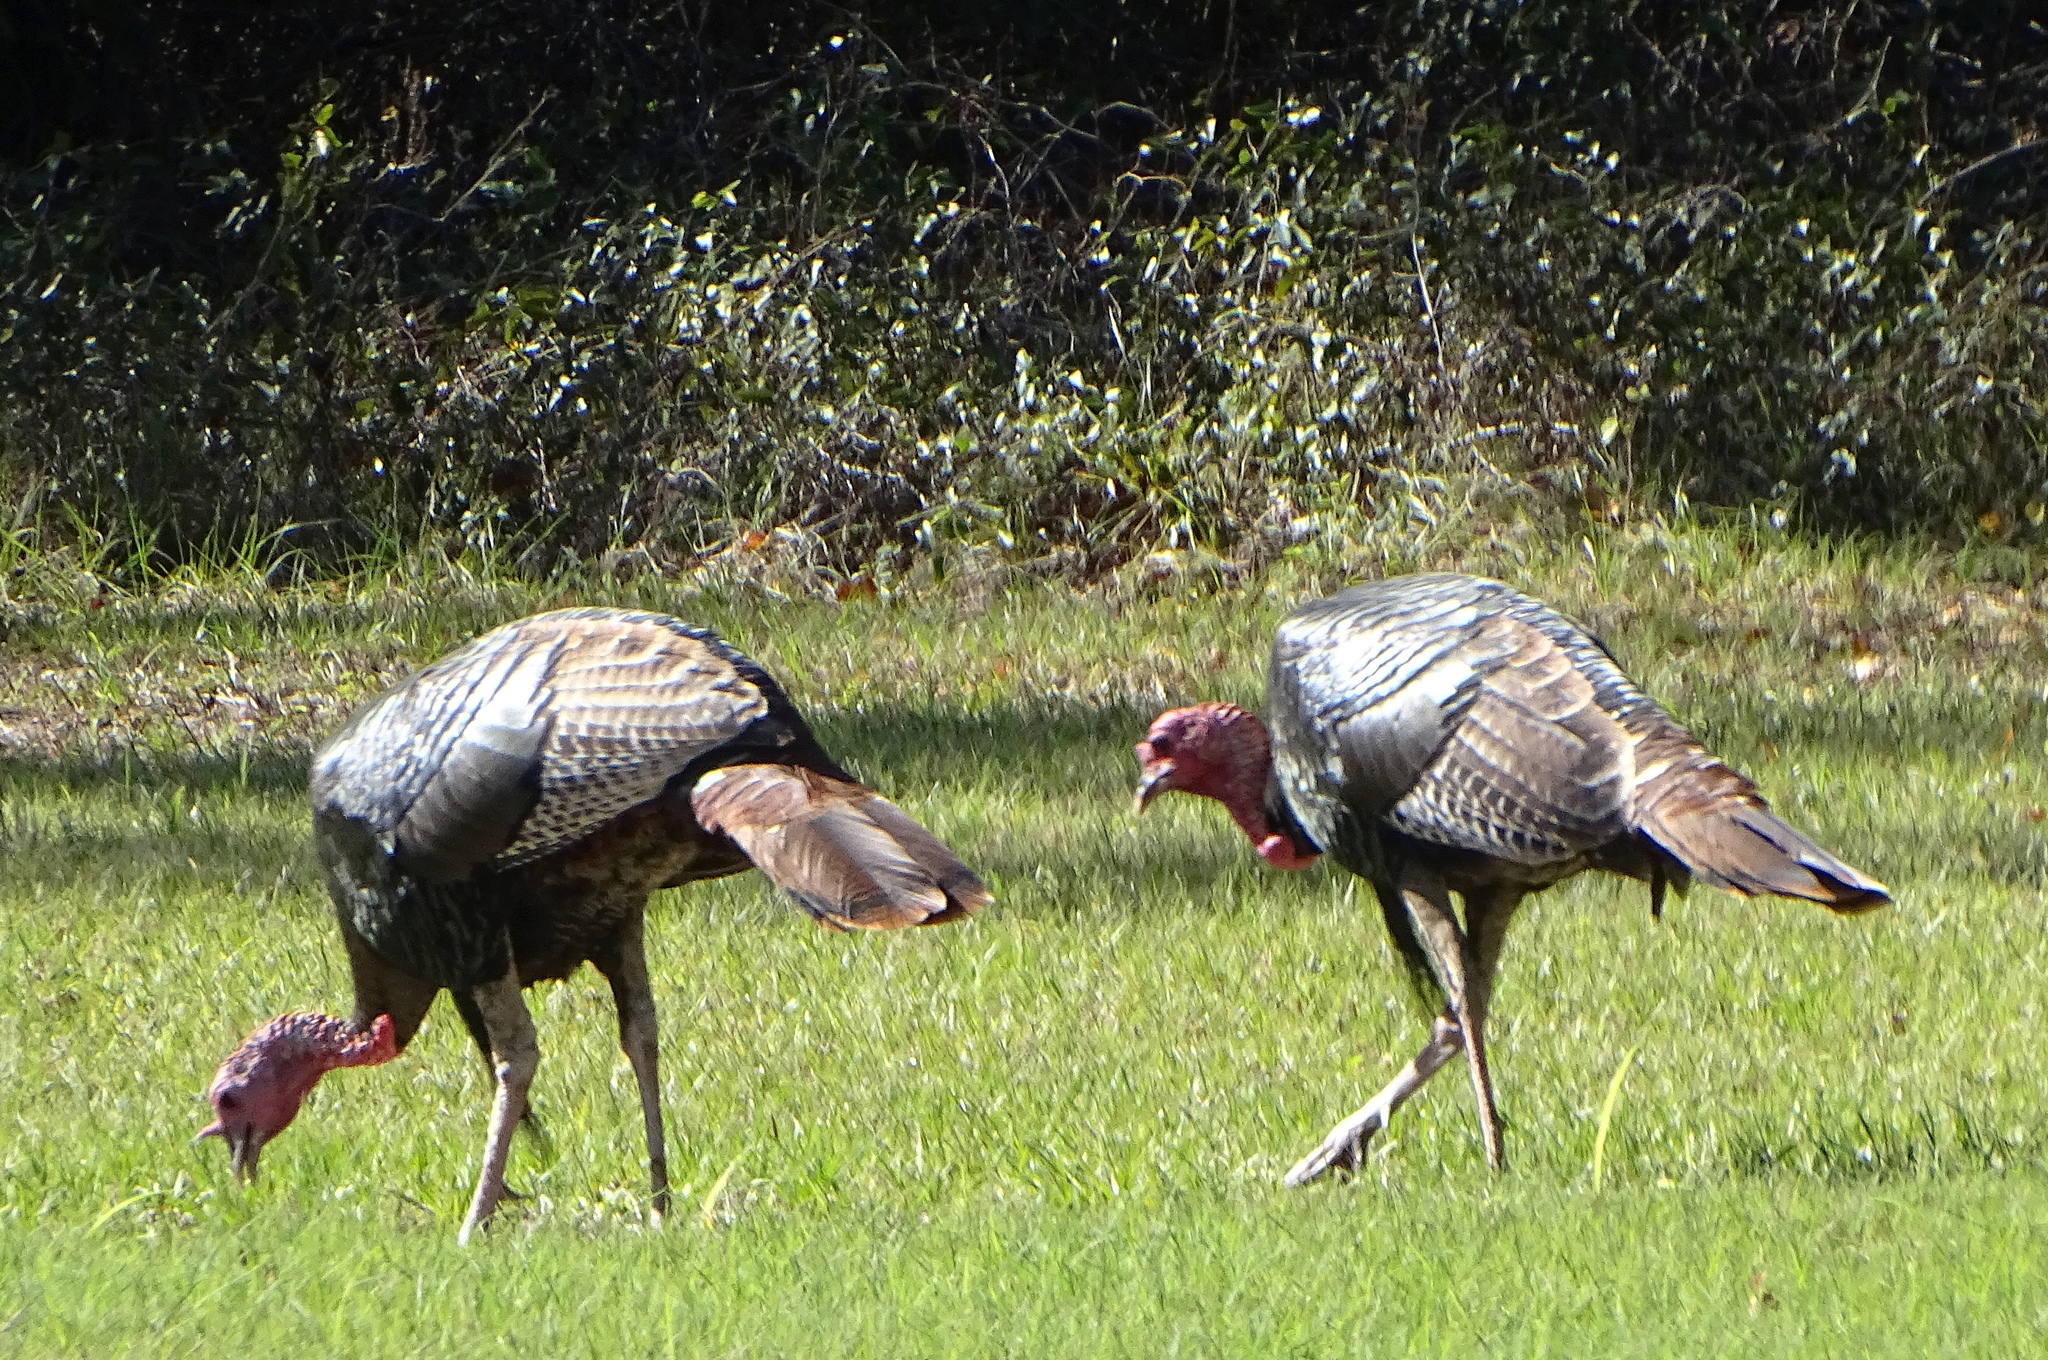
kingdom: Animalia
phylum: Chordata
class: Aves
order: Galliformes
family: Phasianidae
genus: Meleagris
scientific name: Meleagris gallopavo
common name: Wild turkey
